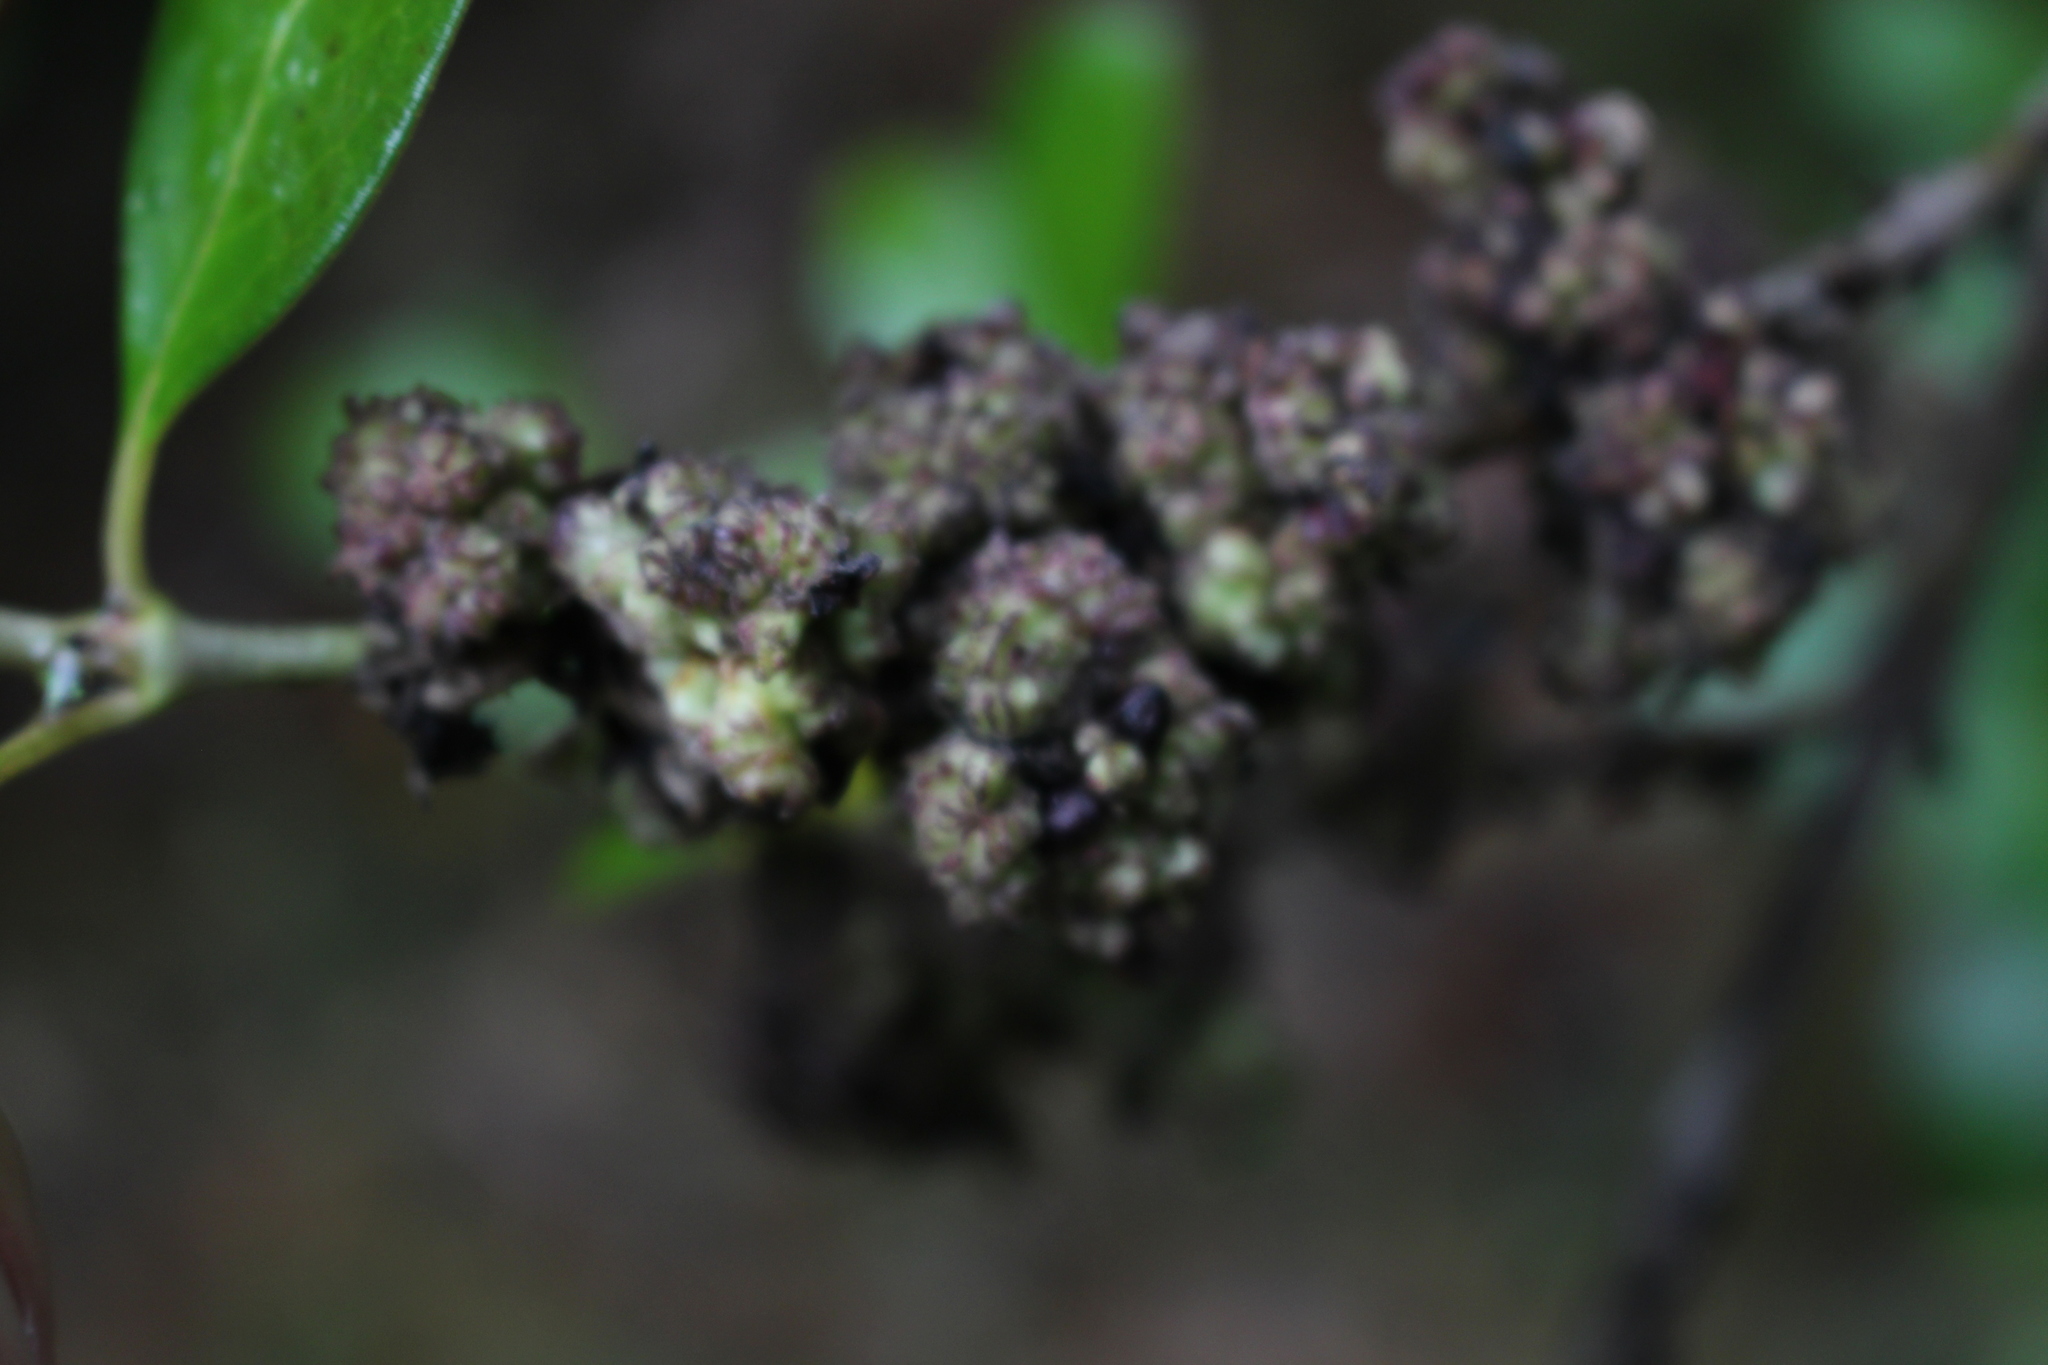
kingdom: Plantae
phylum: Tracheophyta
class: Magnoliopsida
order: Gentianales
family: Rubiaceae
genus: Coprosma
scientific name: Coprosma robusta
